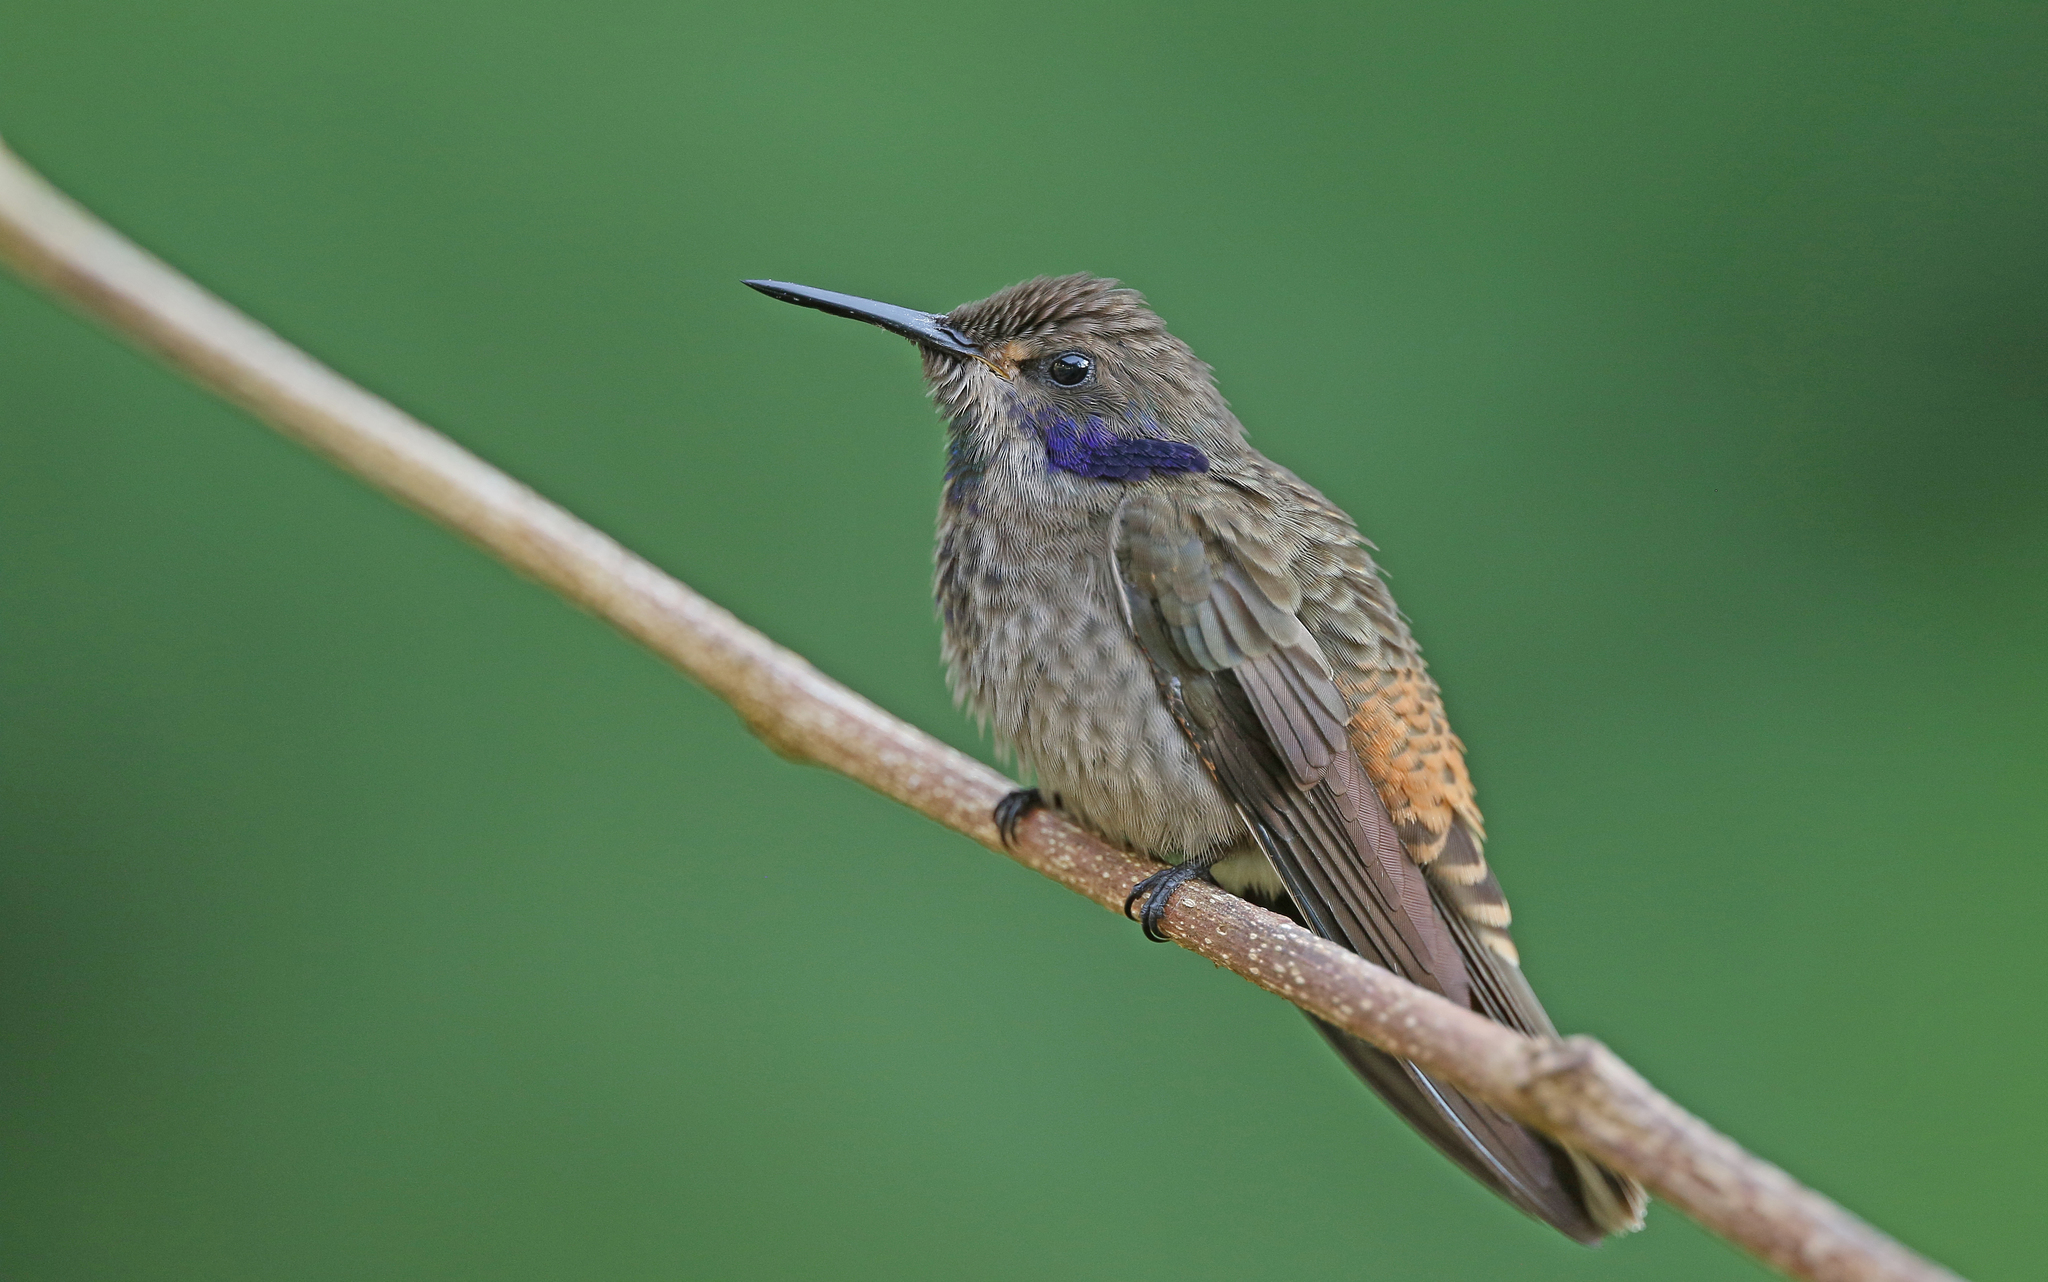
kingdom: Animalia
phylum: Chordata
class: Aves
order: Apodiformes
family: Trochilidae
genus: Colibri
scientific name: Colibri delphinae
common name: Brown violetear
